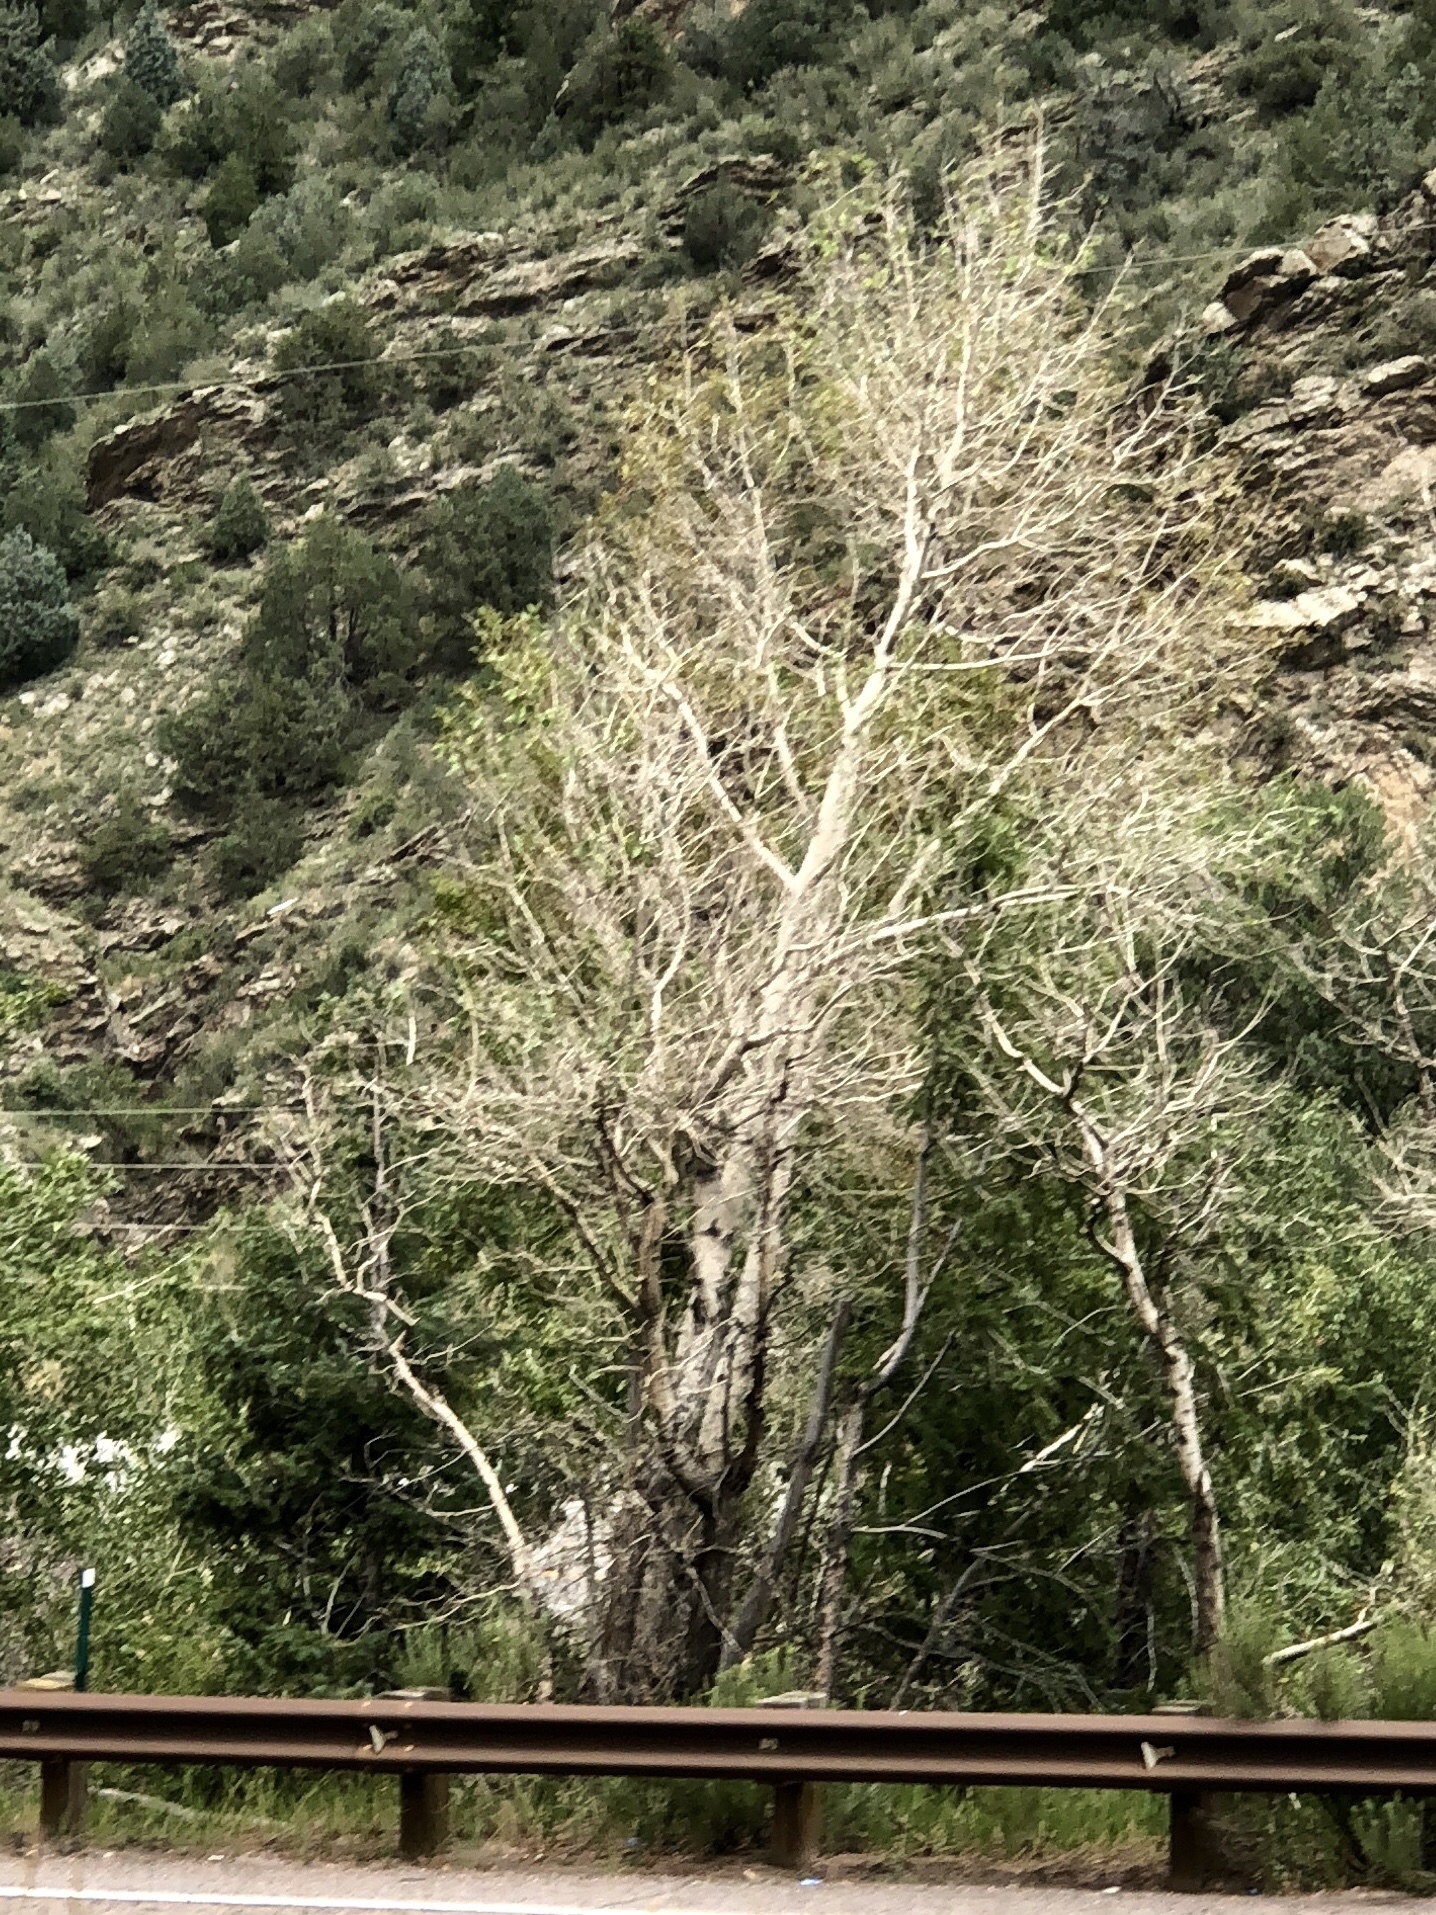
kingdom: Plantae
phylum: Tracheophyta
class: Magnoliopsida
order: Malpighiales
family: Salicaceae
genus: Populus
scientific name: Populus tremuloides
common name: Quaking aspen
